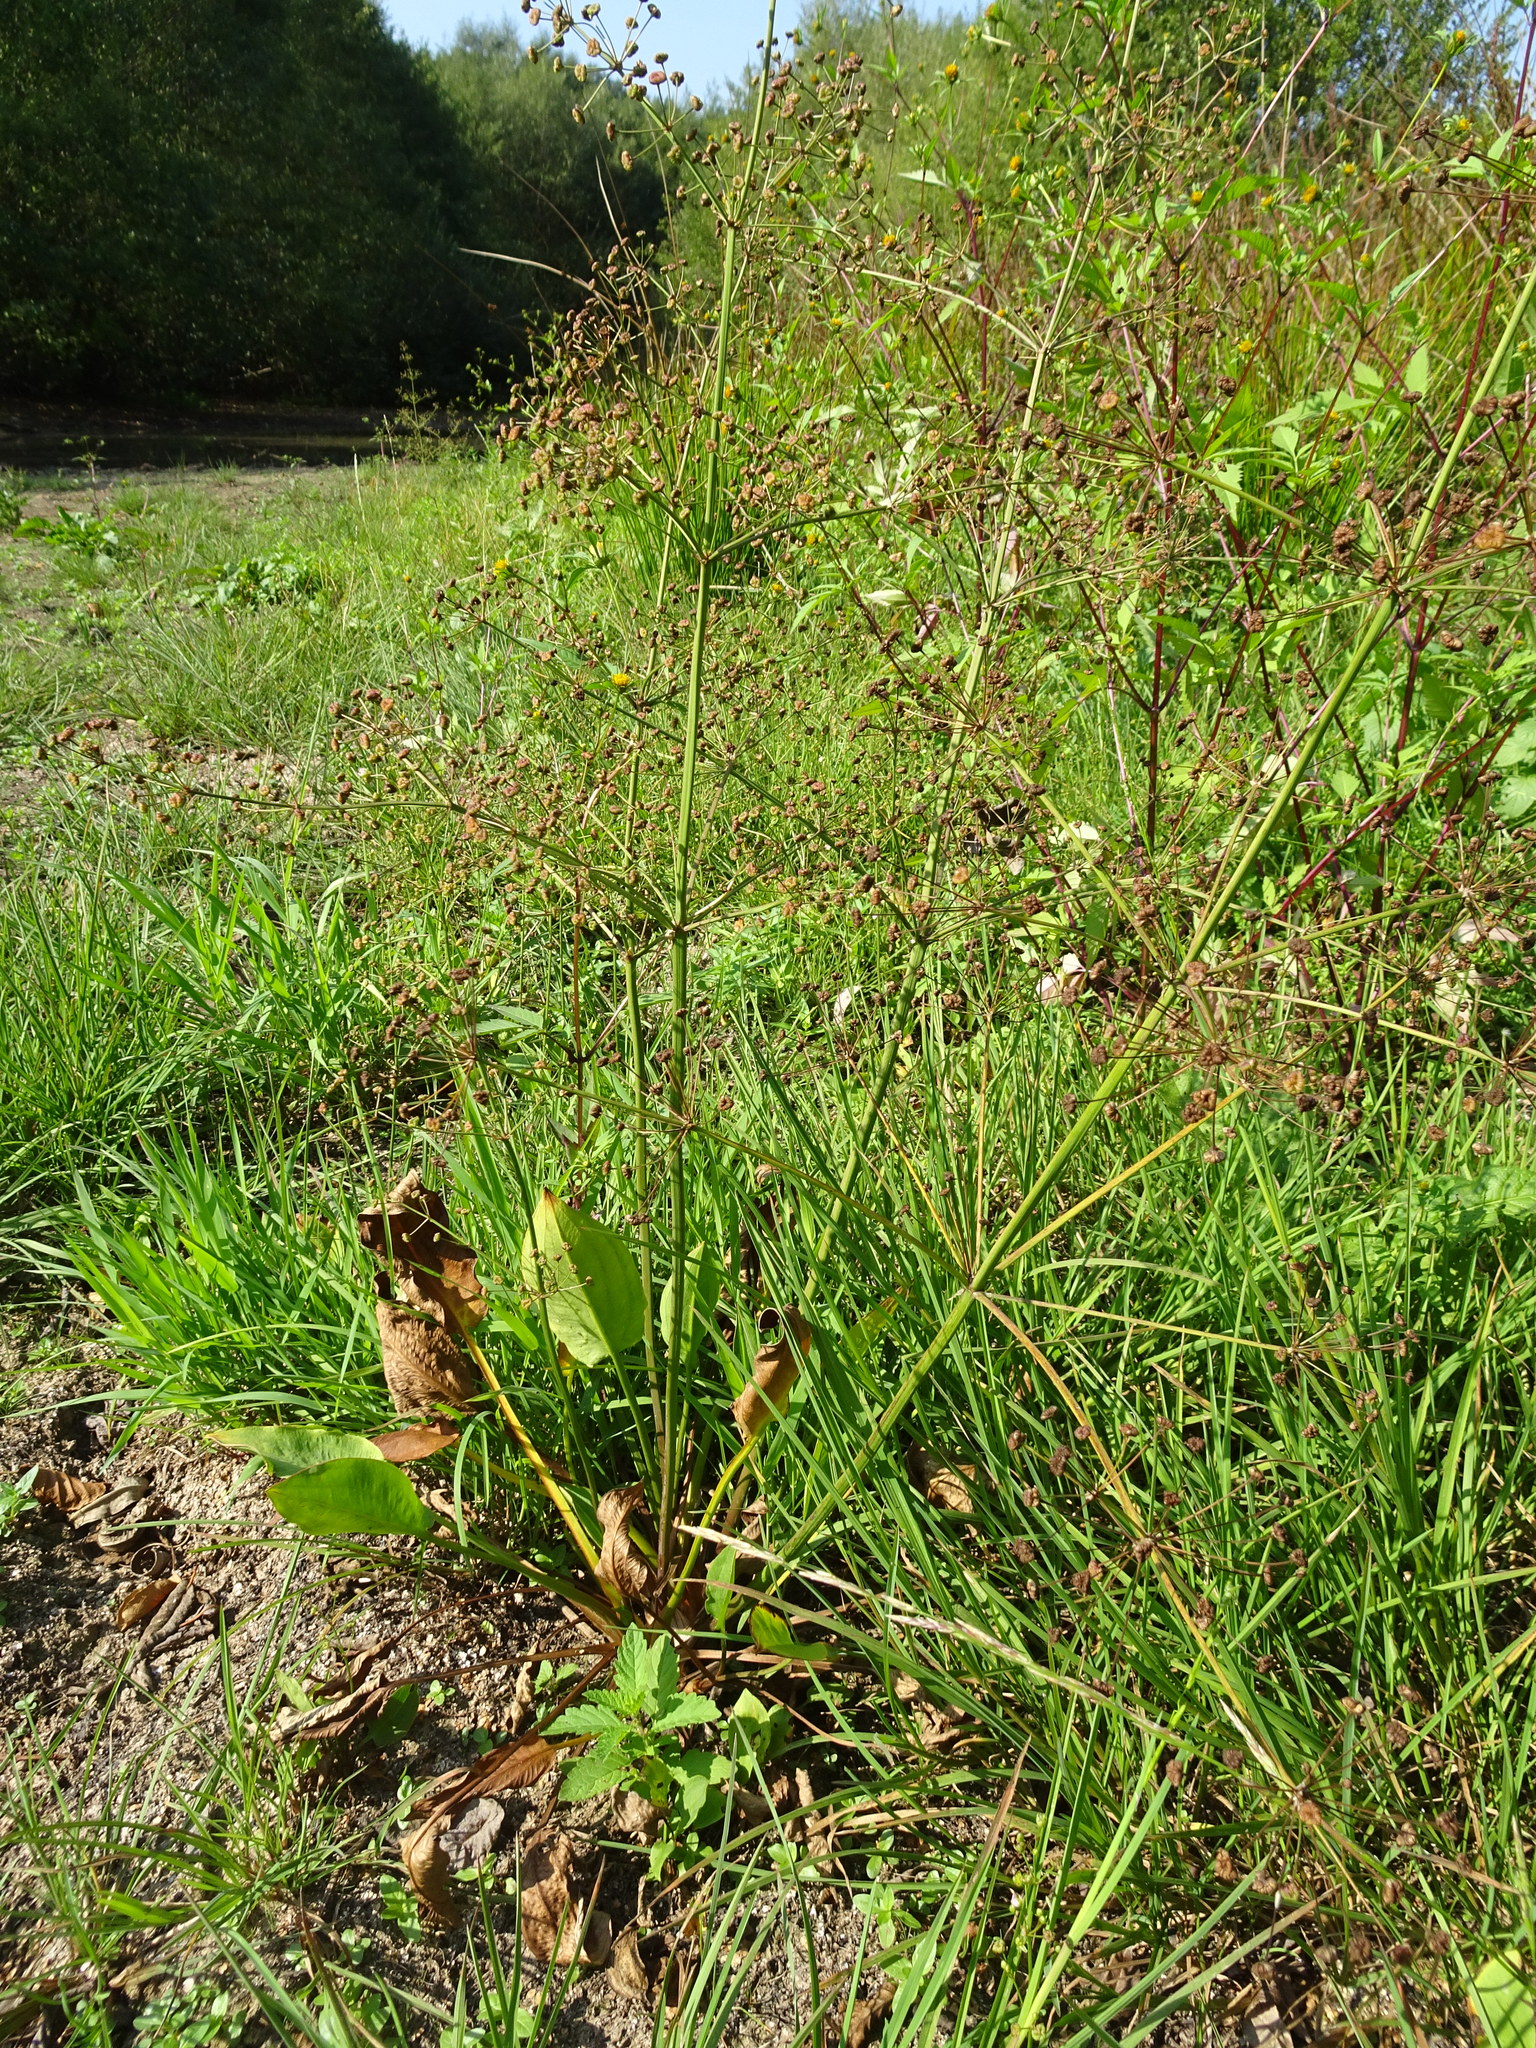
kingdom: Plantae
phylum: Tracheophyta
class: Liliopsida
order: Alismatales
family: Alismataceae
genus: Alisma
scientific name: Alisma plantago-aquatica
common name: Water-plantain
